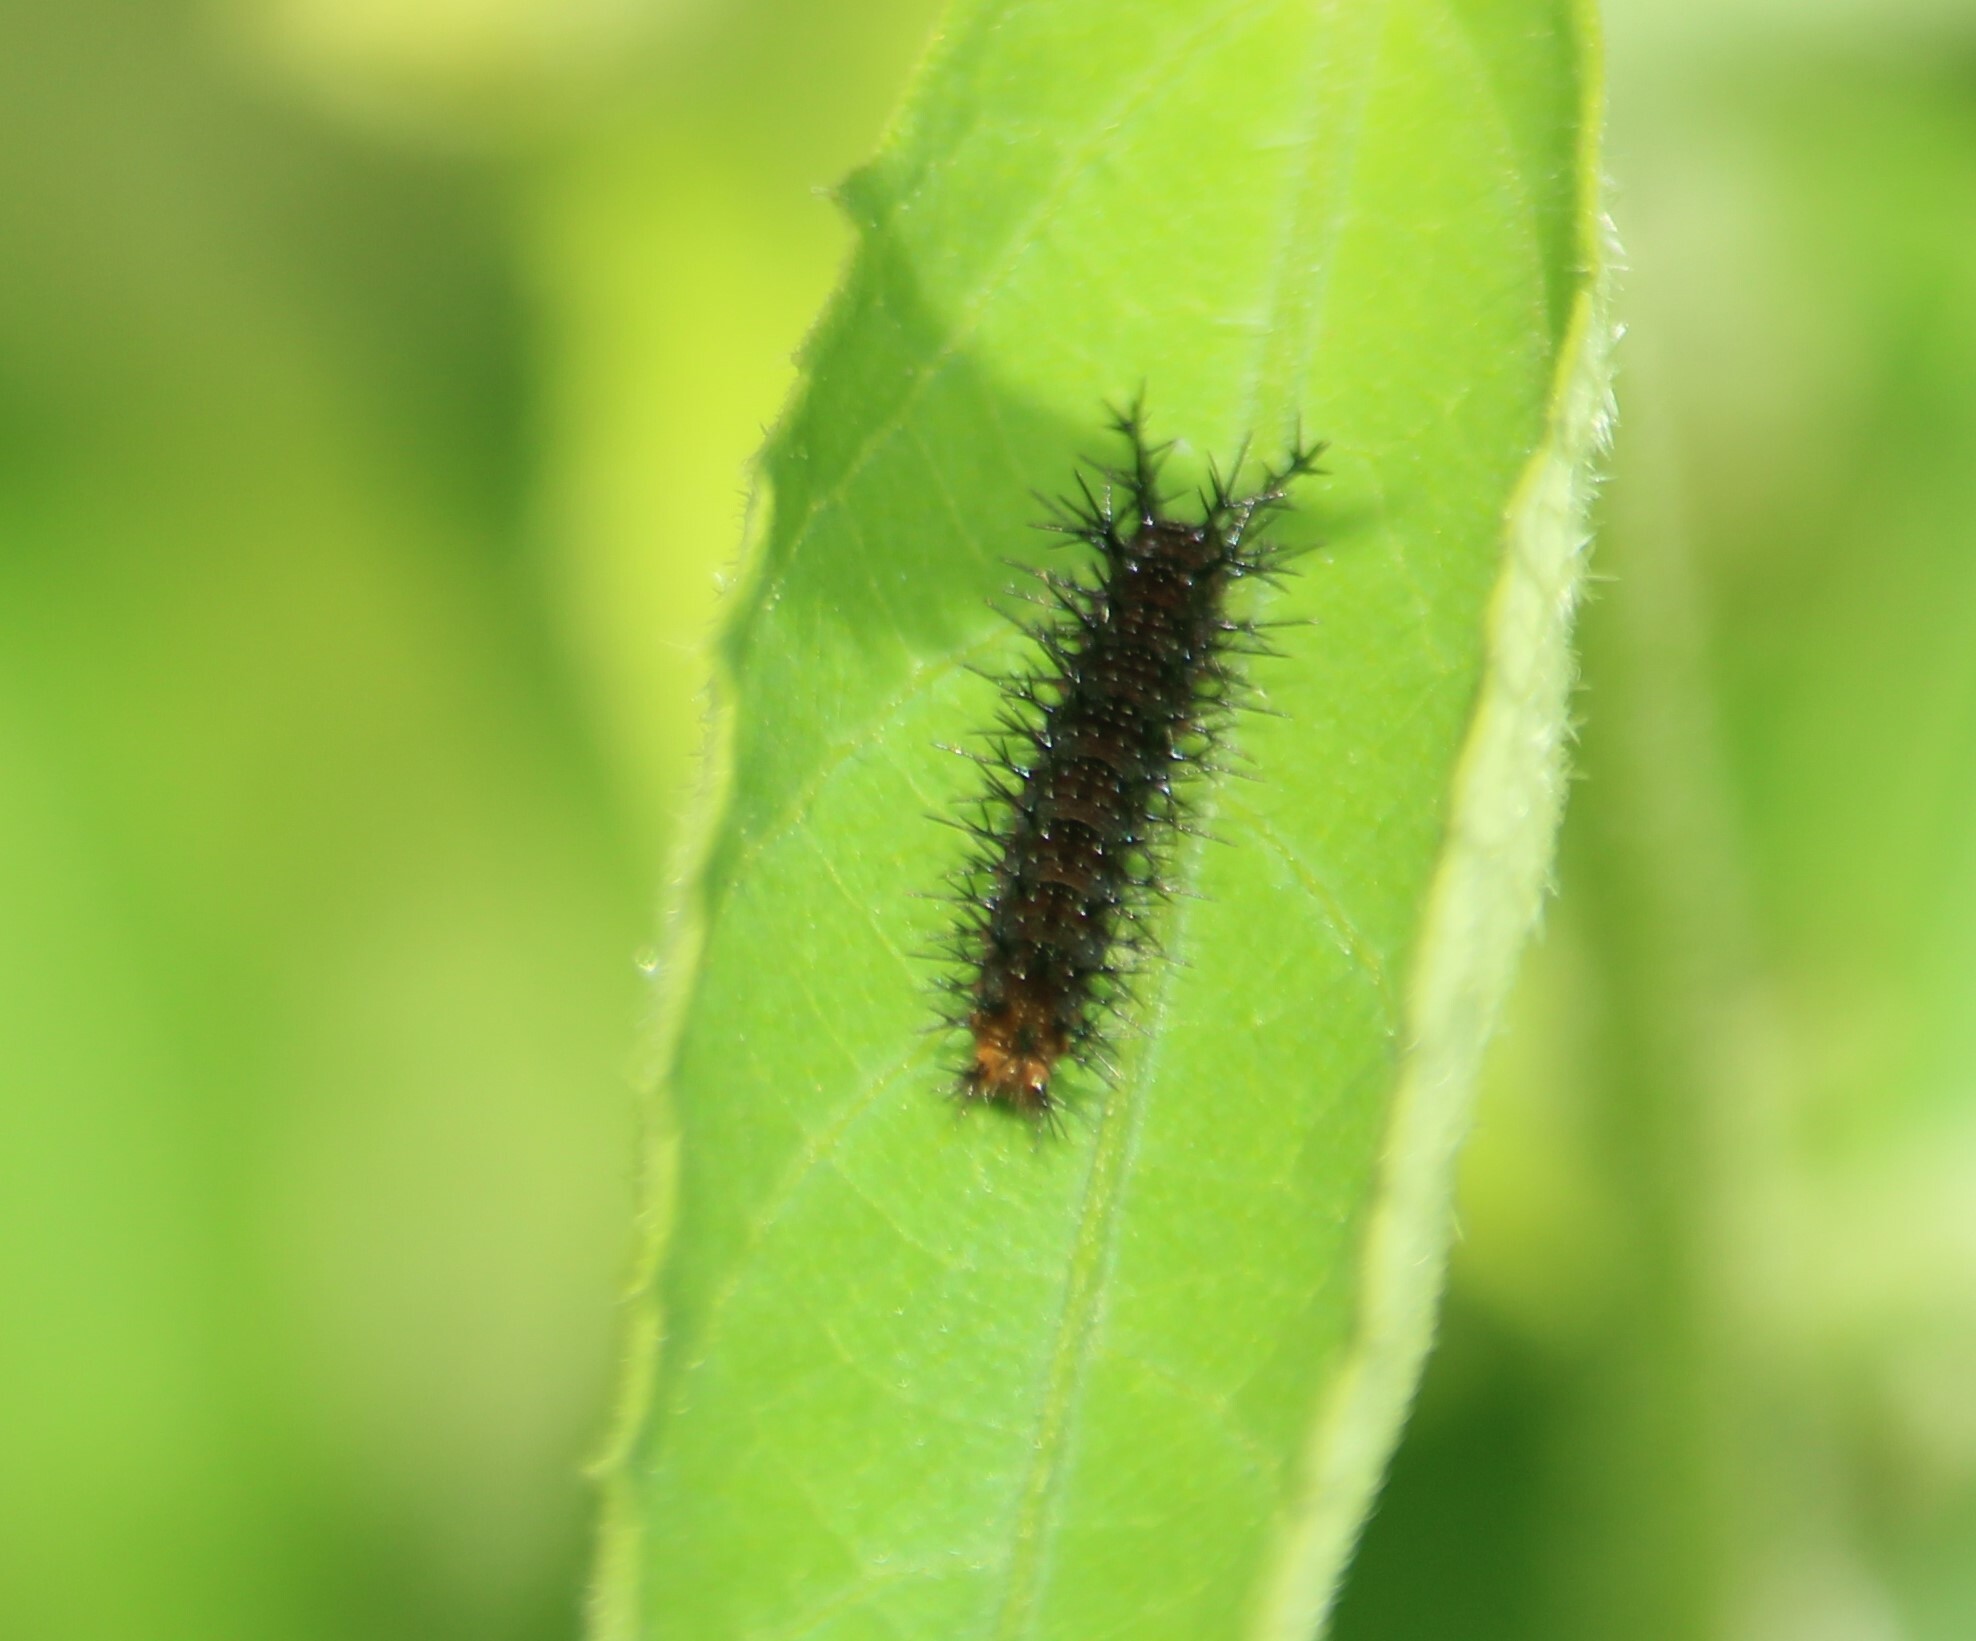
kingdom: Animalia
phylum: Arthropoda
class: Insecta
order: Lepidoptera
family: Nymphalidae
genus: Ariadne
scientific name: Ariadne ariadne
